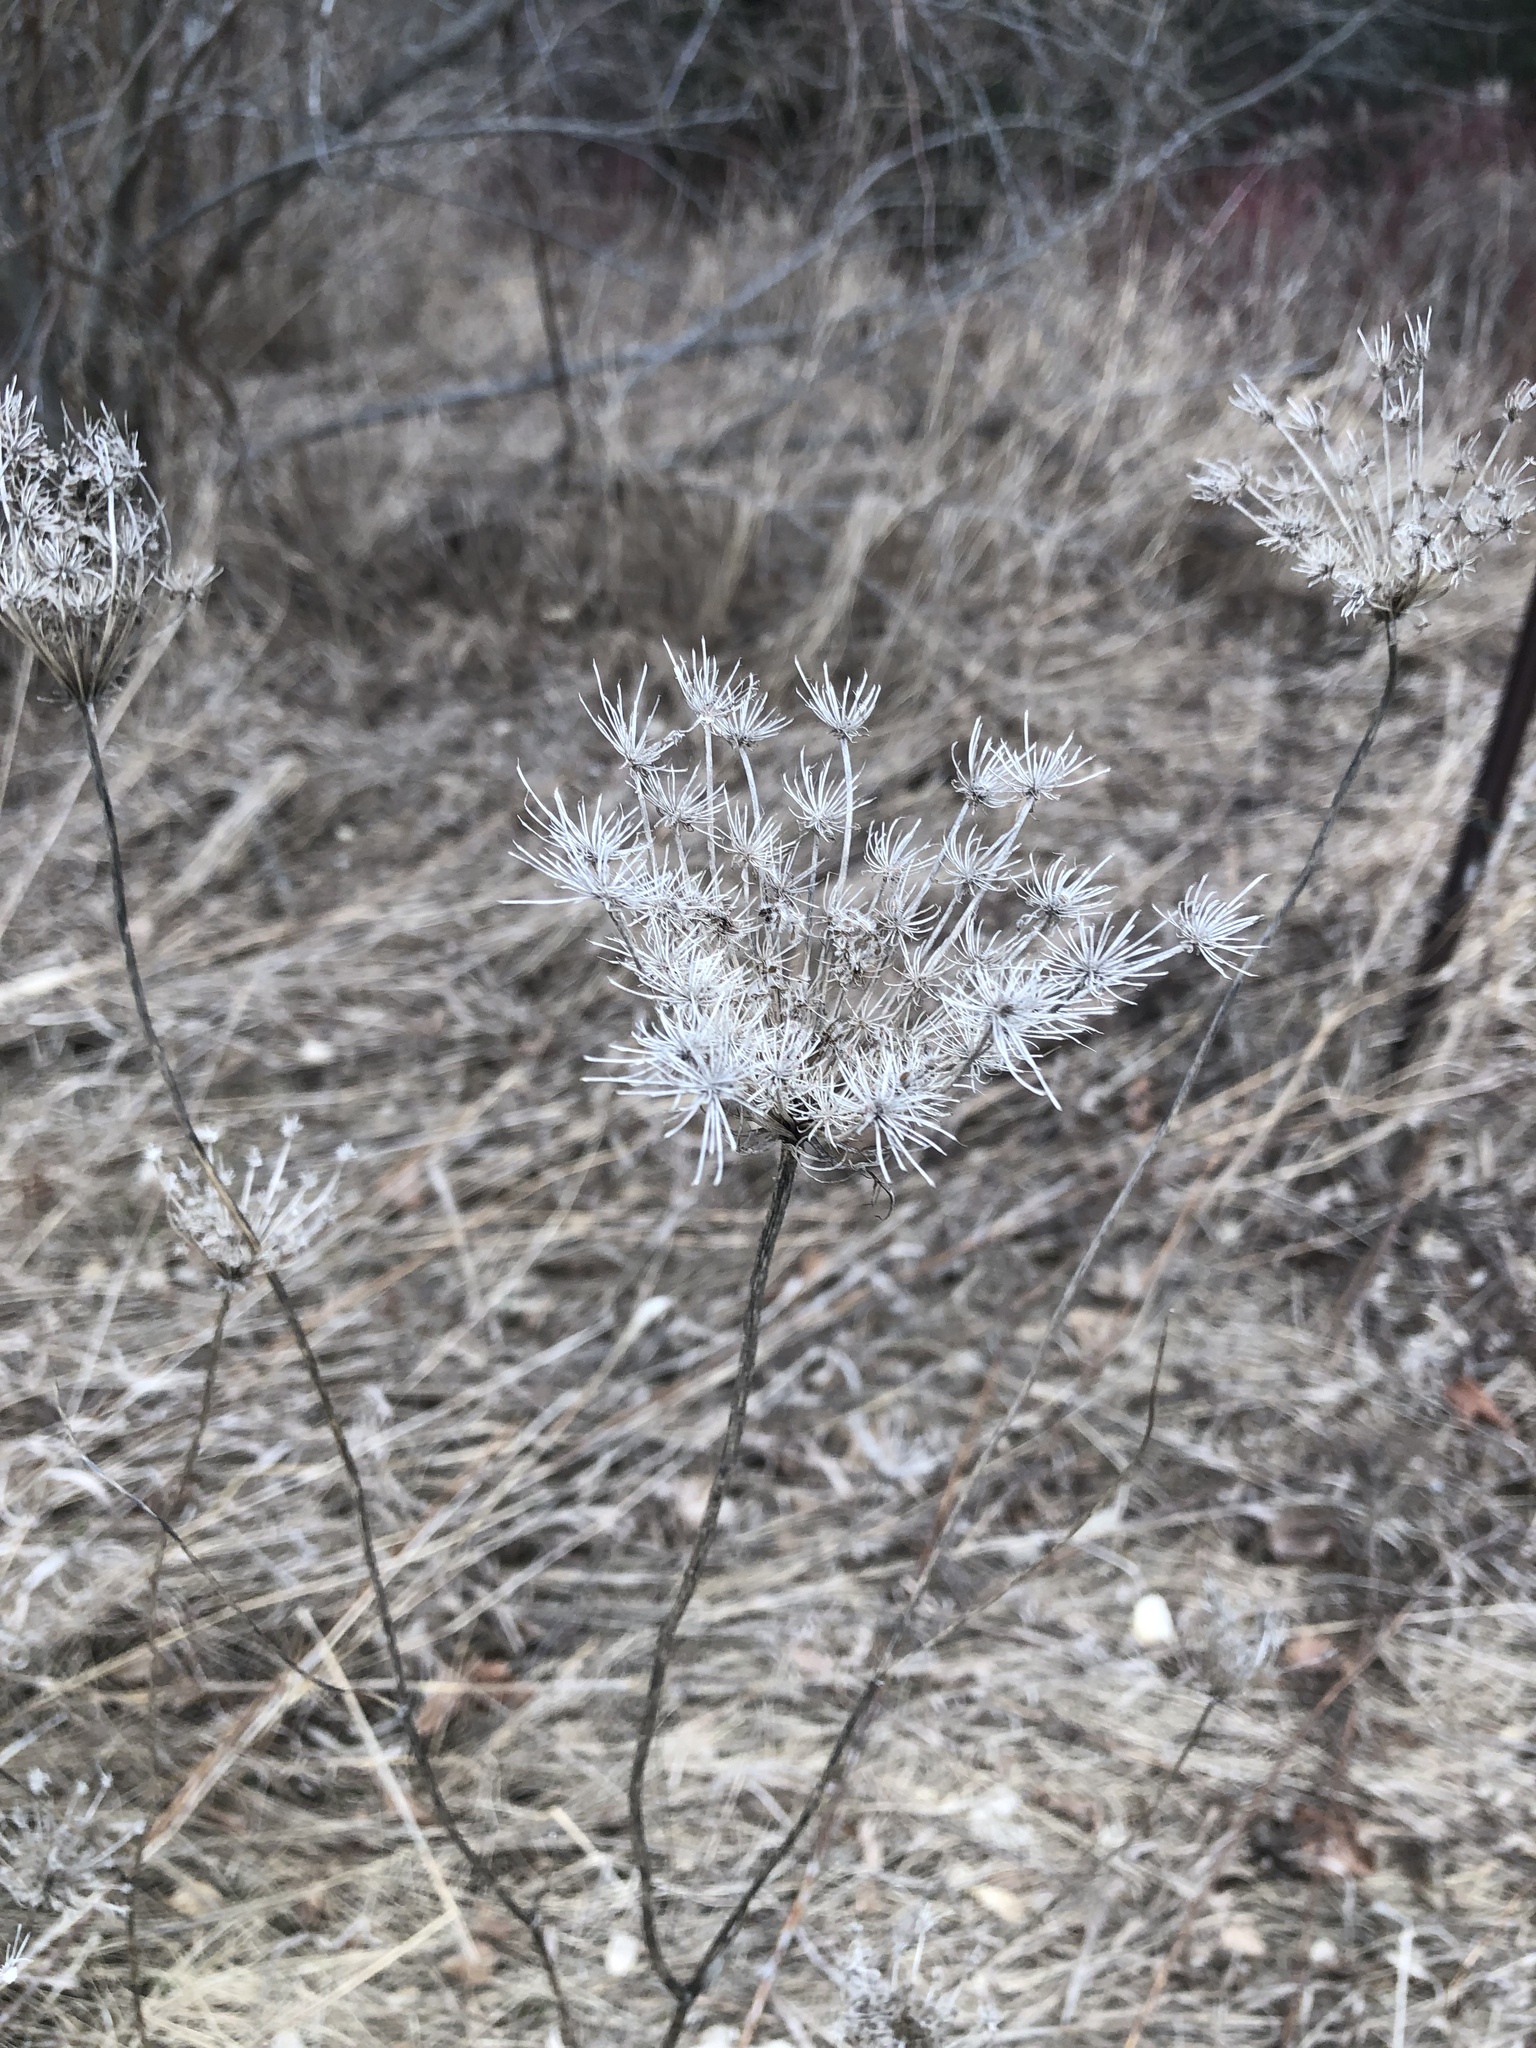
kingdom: Plantae
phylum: Tracheophyta
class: Magnoliopsida
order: Apiales
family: Apiaceae
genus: Daucus
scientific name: Daucus carota
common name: Wild carrot
